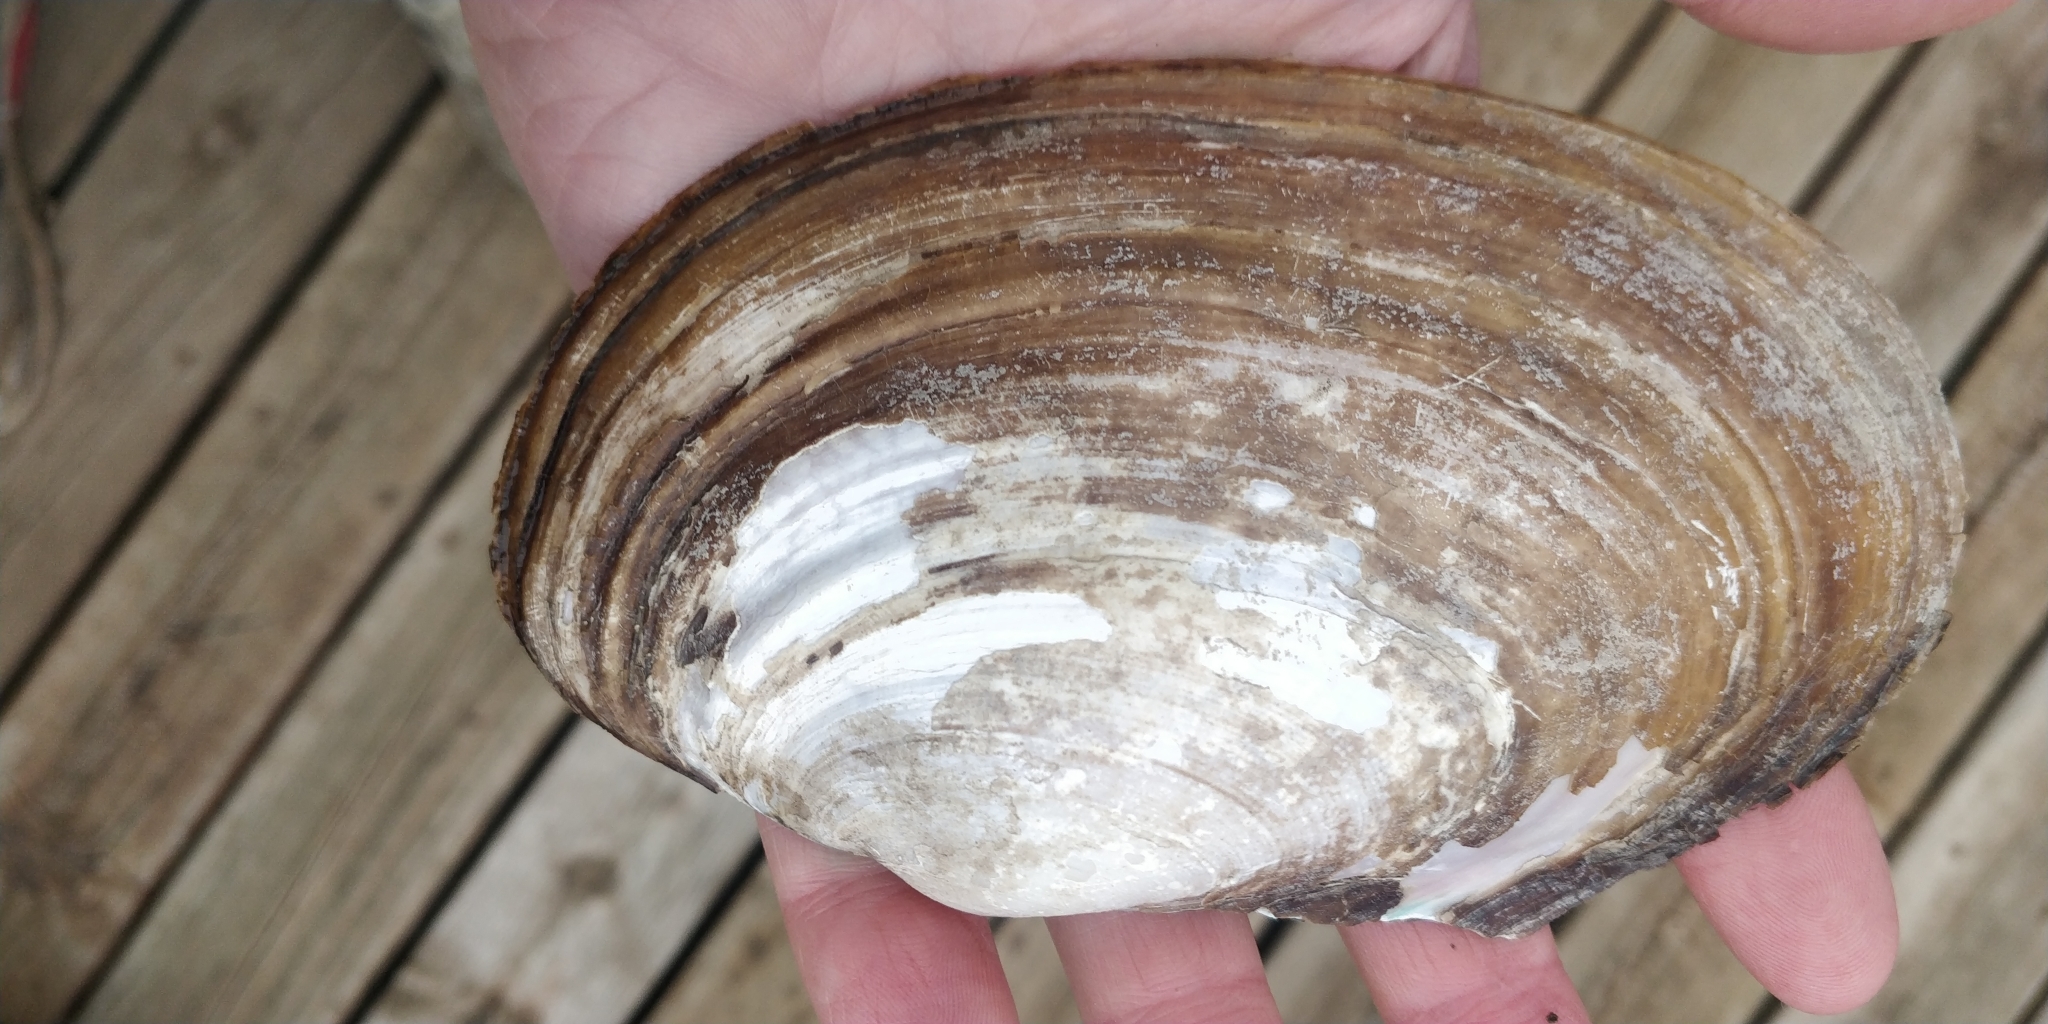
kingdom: Animalia
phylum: Mollusca
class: Bivalvia
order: Unionida
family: Unionidae
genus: Potamilus
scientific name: Potamilus ohiensis
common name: Pink papershell
